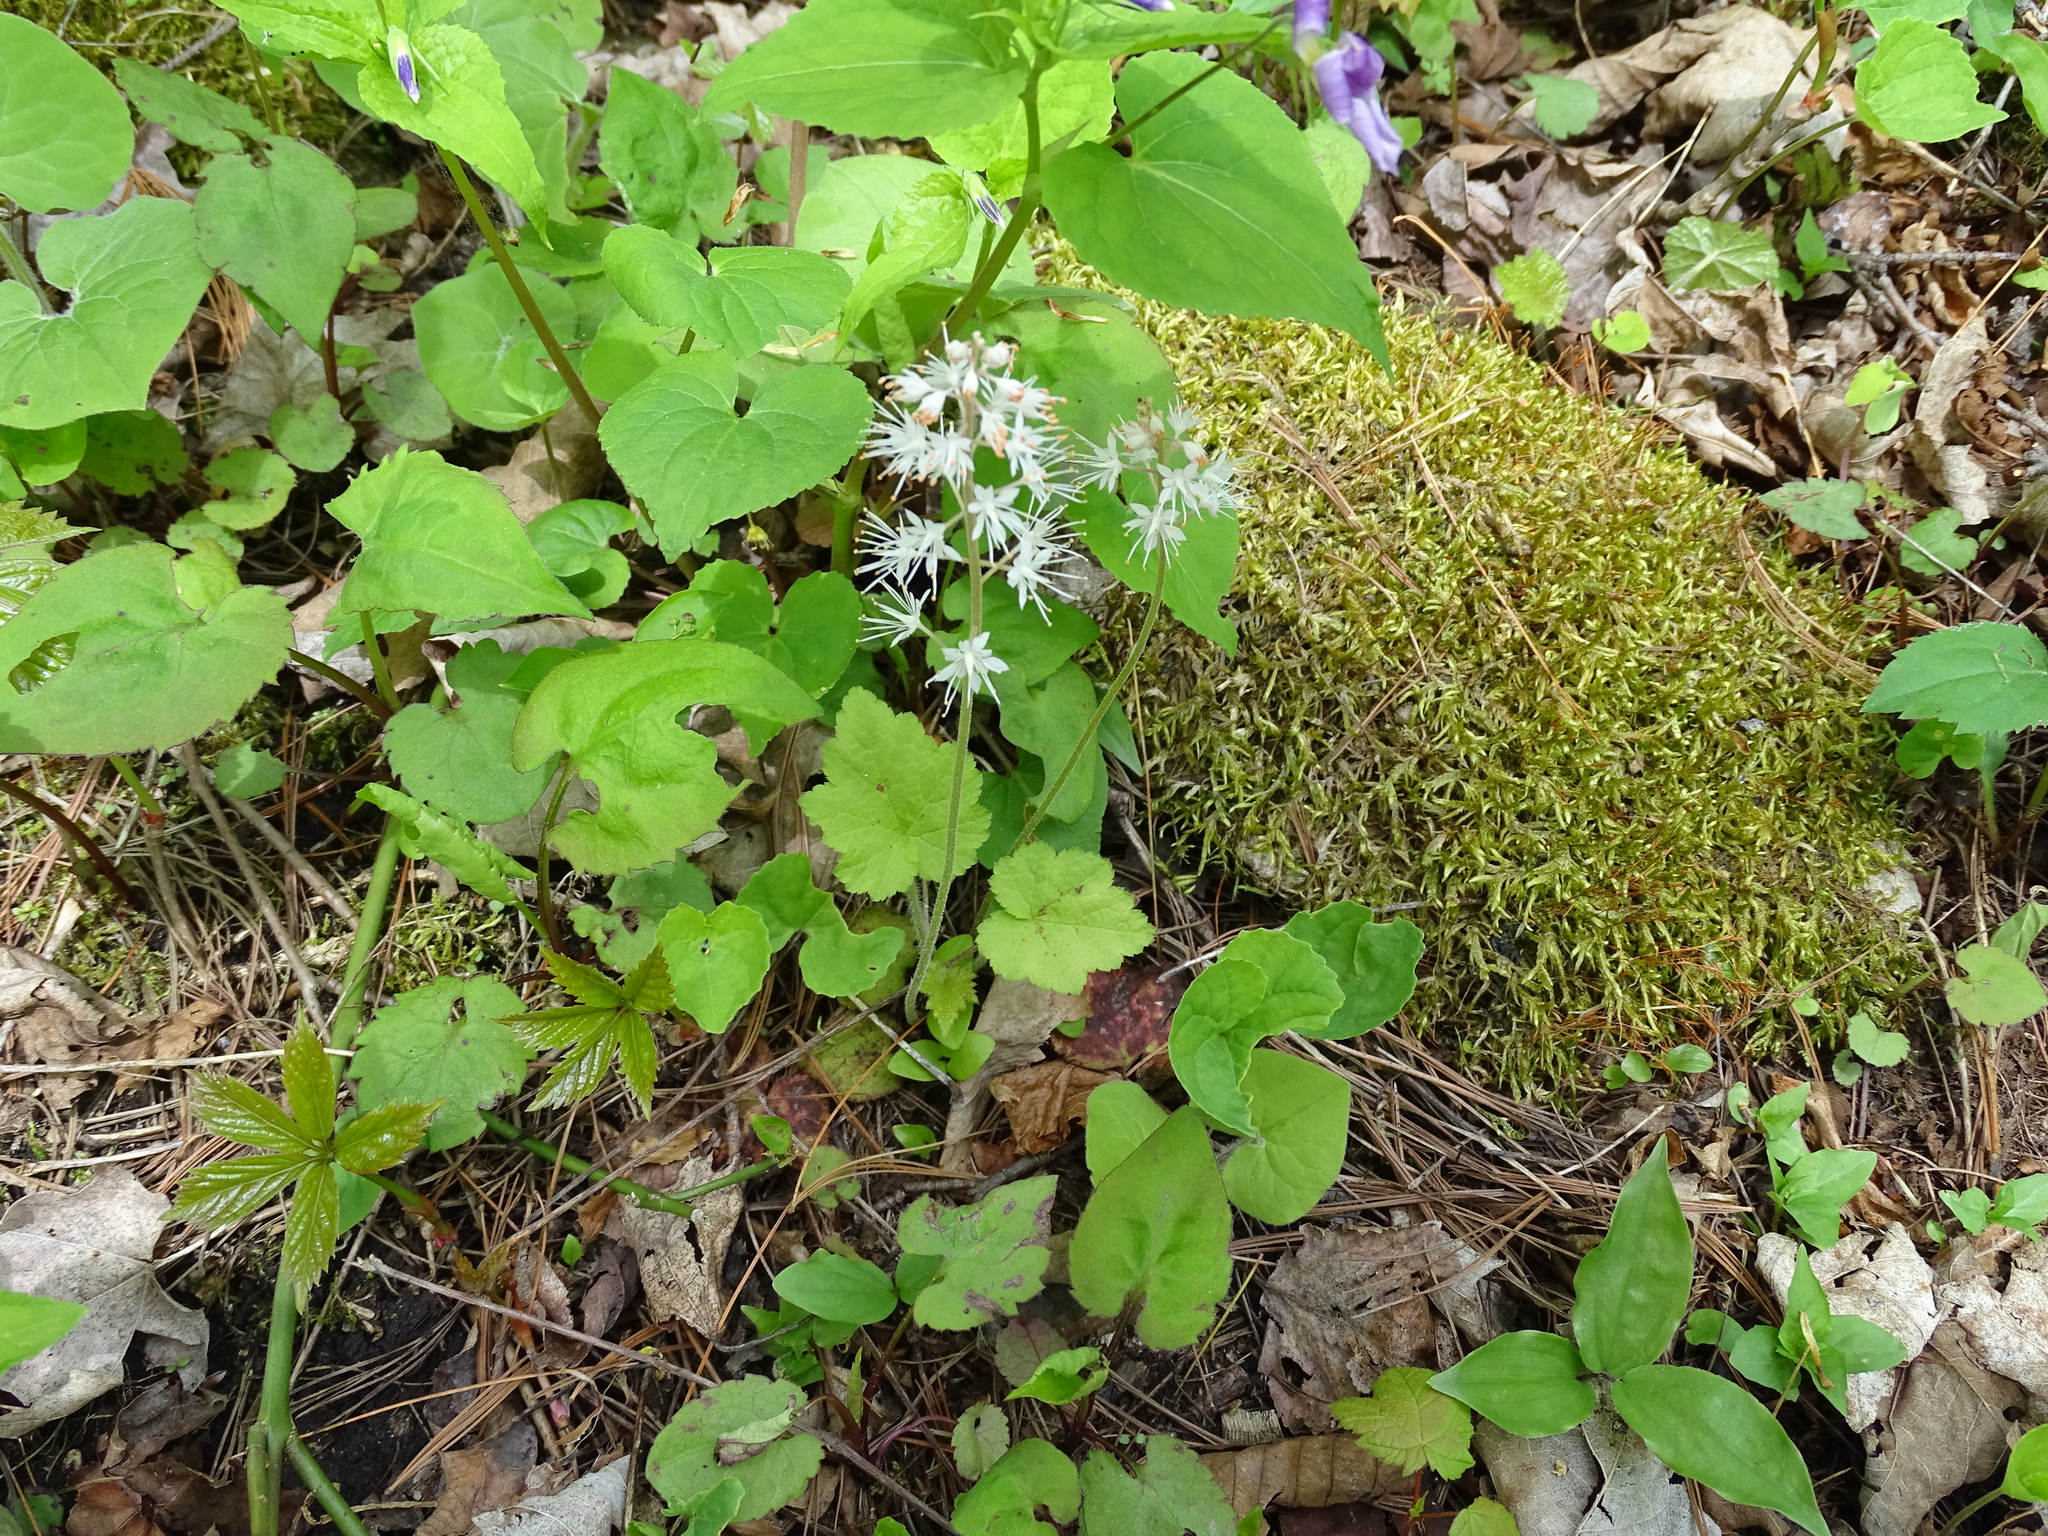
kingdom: Plantae
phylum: Tracheophyta
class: Magnoliopsida
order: Saxifragales
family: Saxifragaceae
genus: Tiarella
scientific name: Tiarella stolonifera
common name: Stoloniferous foamflower
